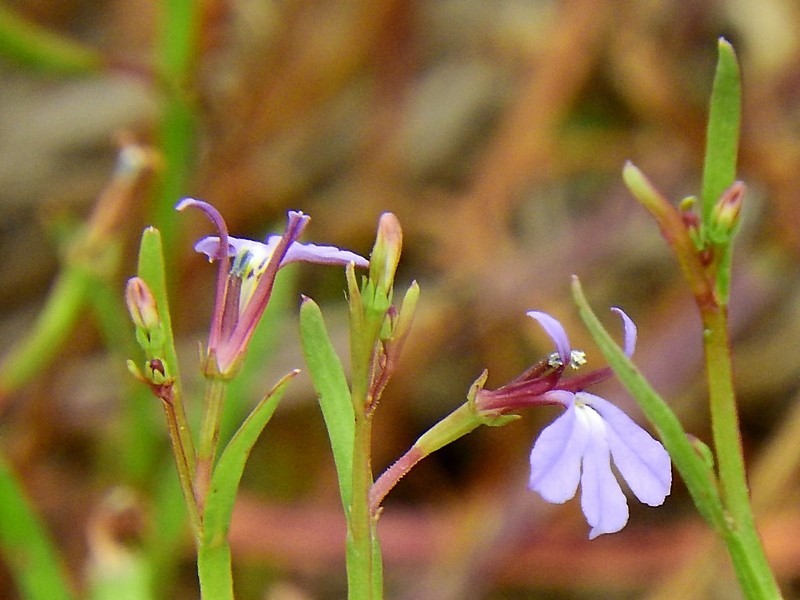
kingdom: Plantae
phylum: Tracheophyta
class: Magnoliopsida
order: Asterales
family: Campanulaceae
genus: Lobelia
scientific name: Lobelia anceps
